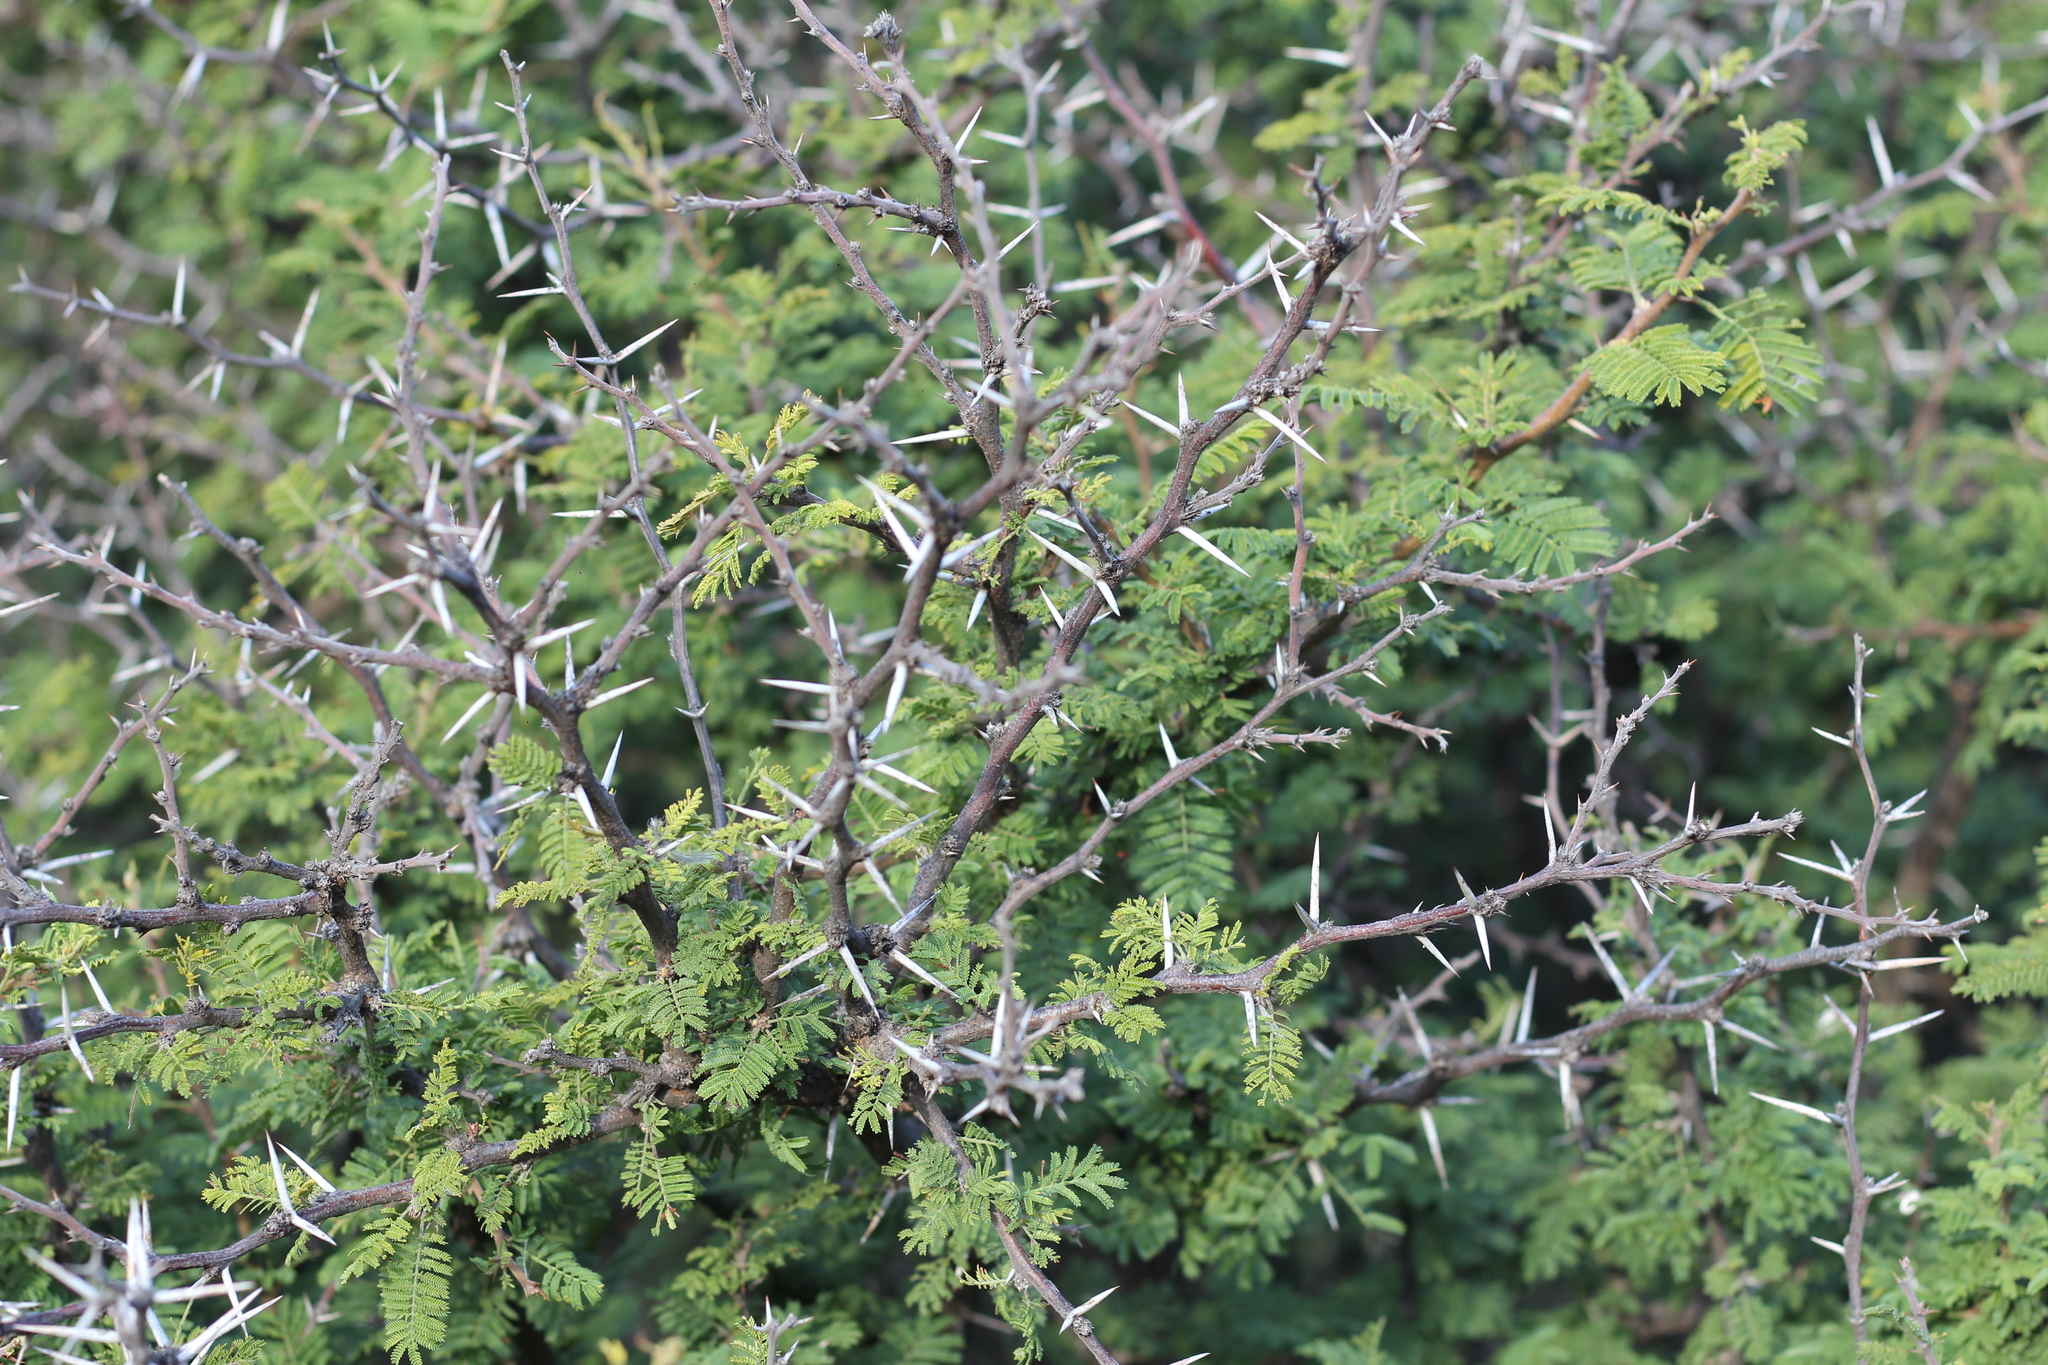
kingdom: Plantae
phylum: Tracheophyta
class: Magnoliopsida
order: Fabales
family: Fabaceae
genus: Vachellia
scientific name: Vachellia caven
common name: Roman cassie
